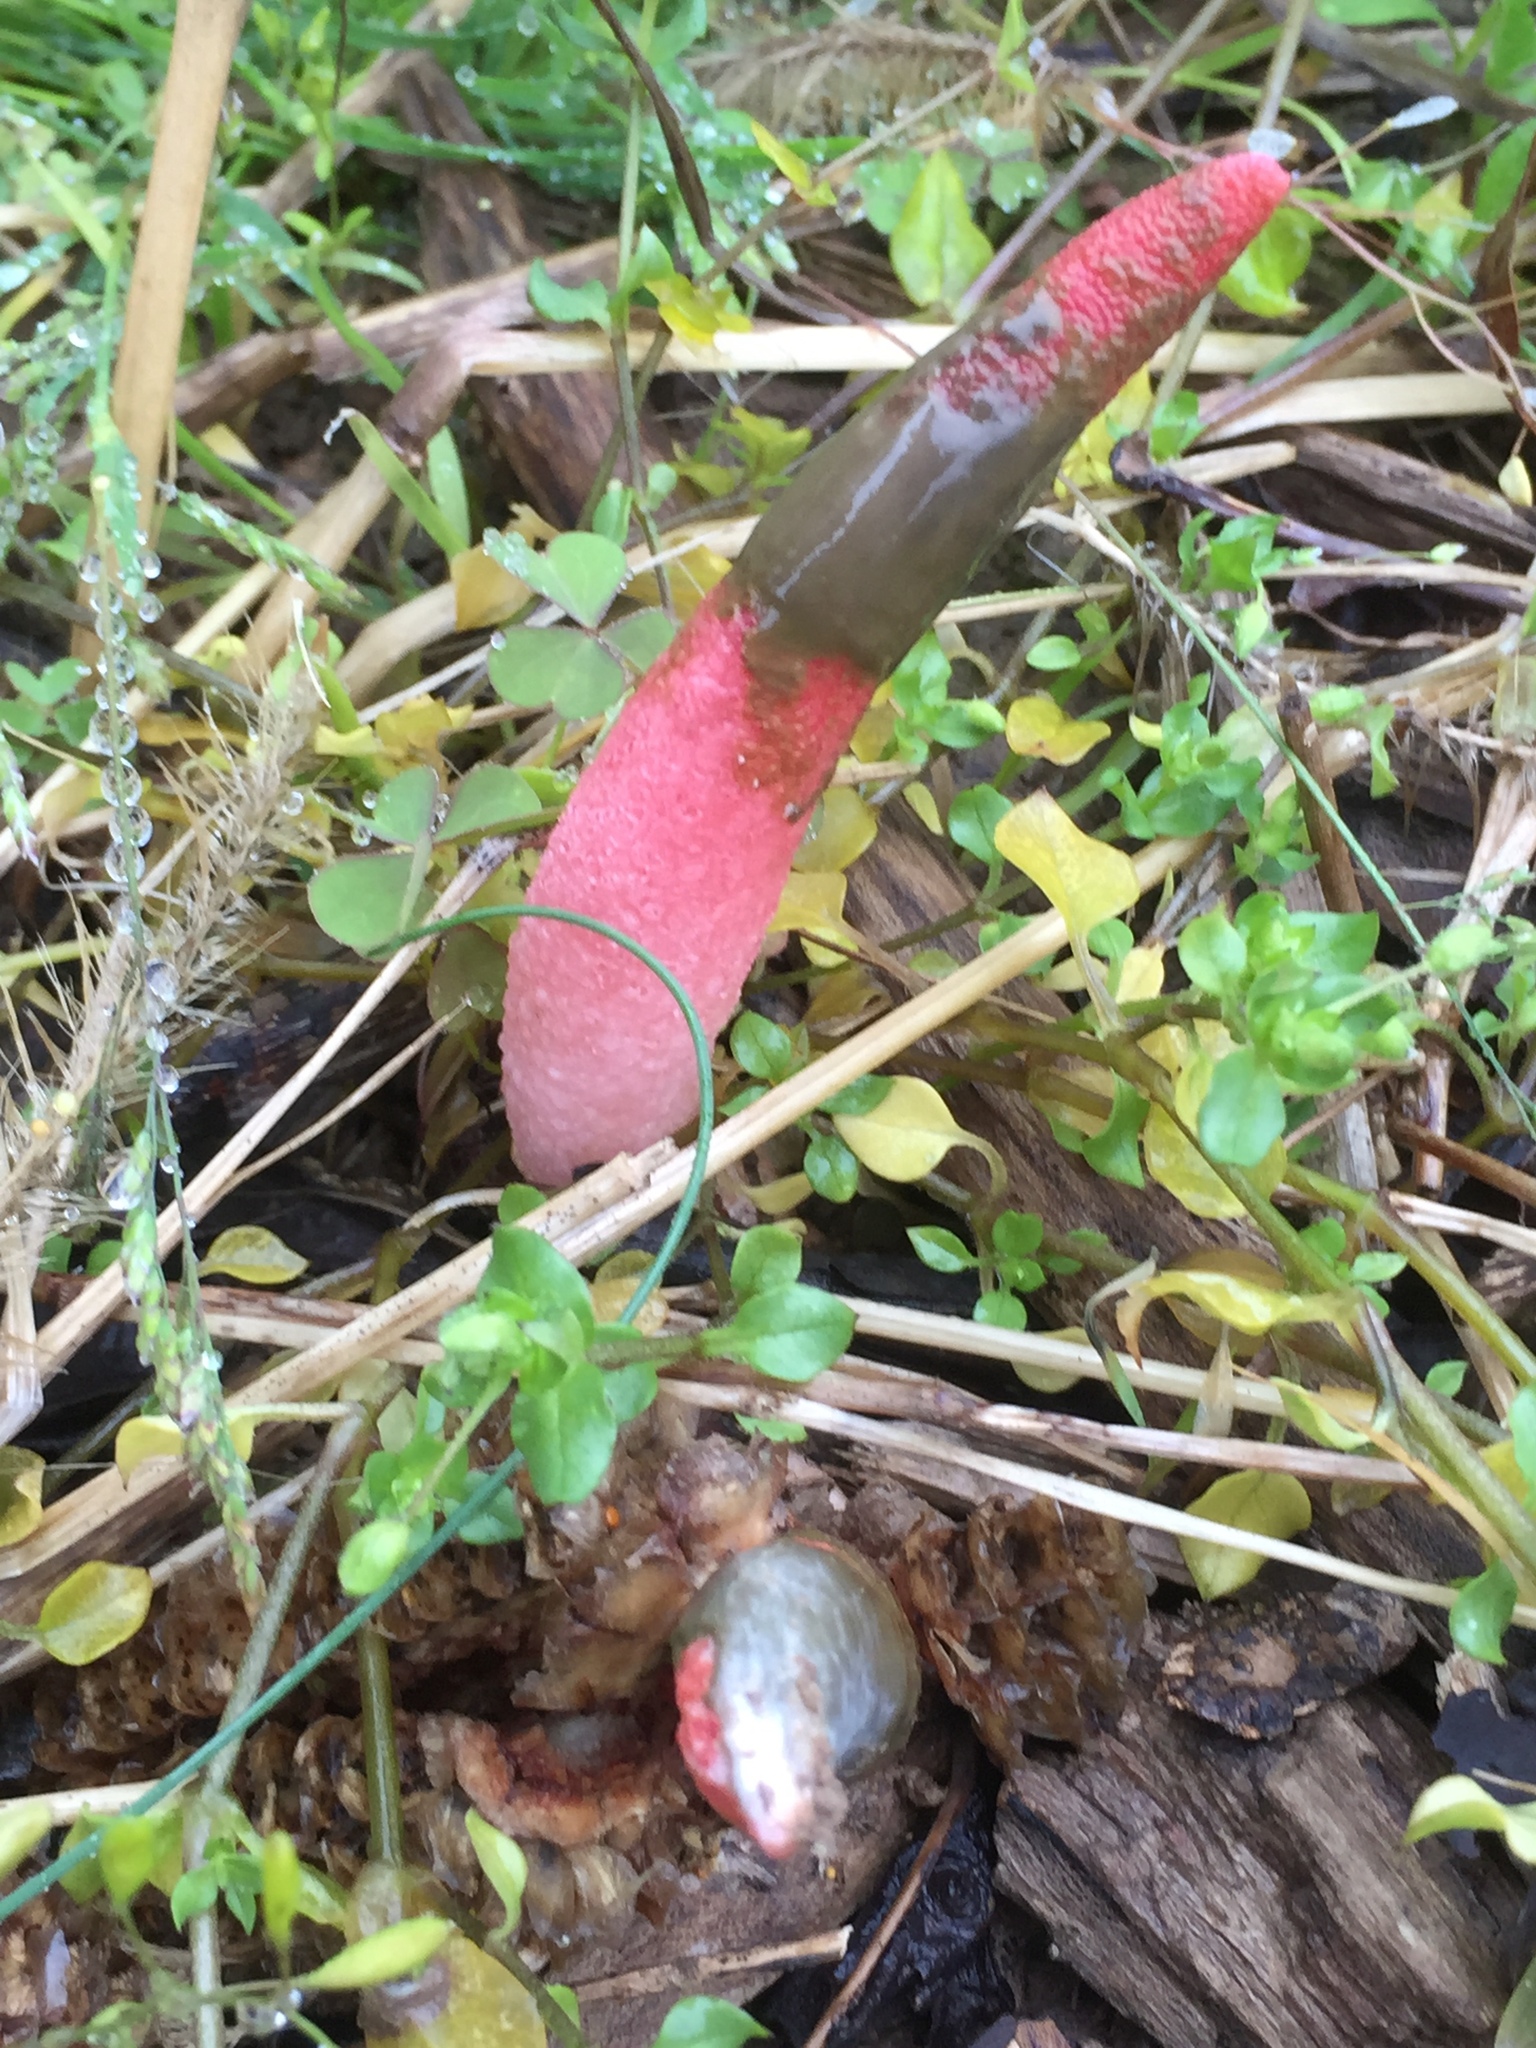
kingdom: Fungi
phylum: Basidiomycota
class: Agaricomycetes
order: Phallales
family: Phallaceae
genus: Mutinus
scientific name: Mutinus elegans
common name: Devil's dipstick
